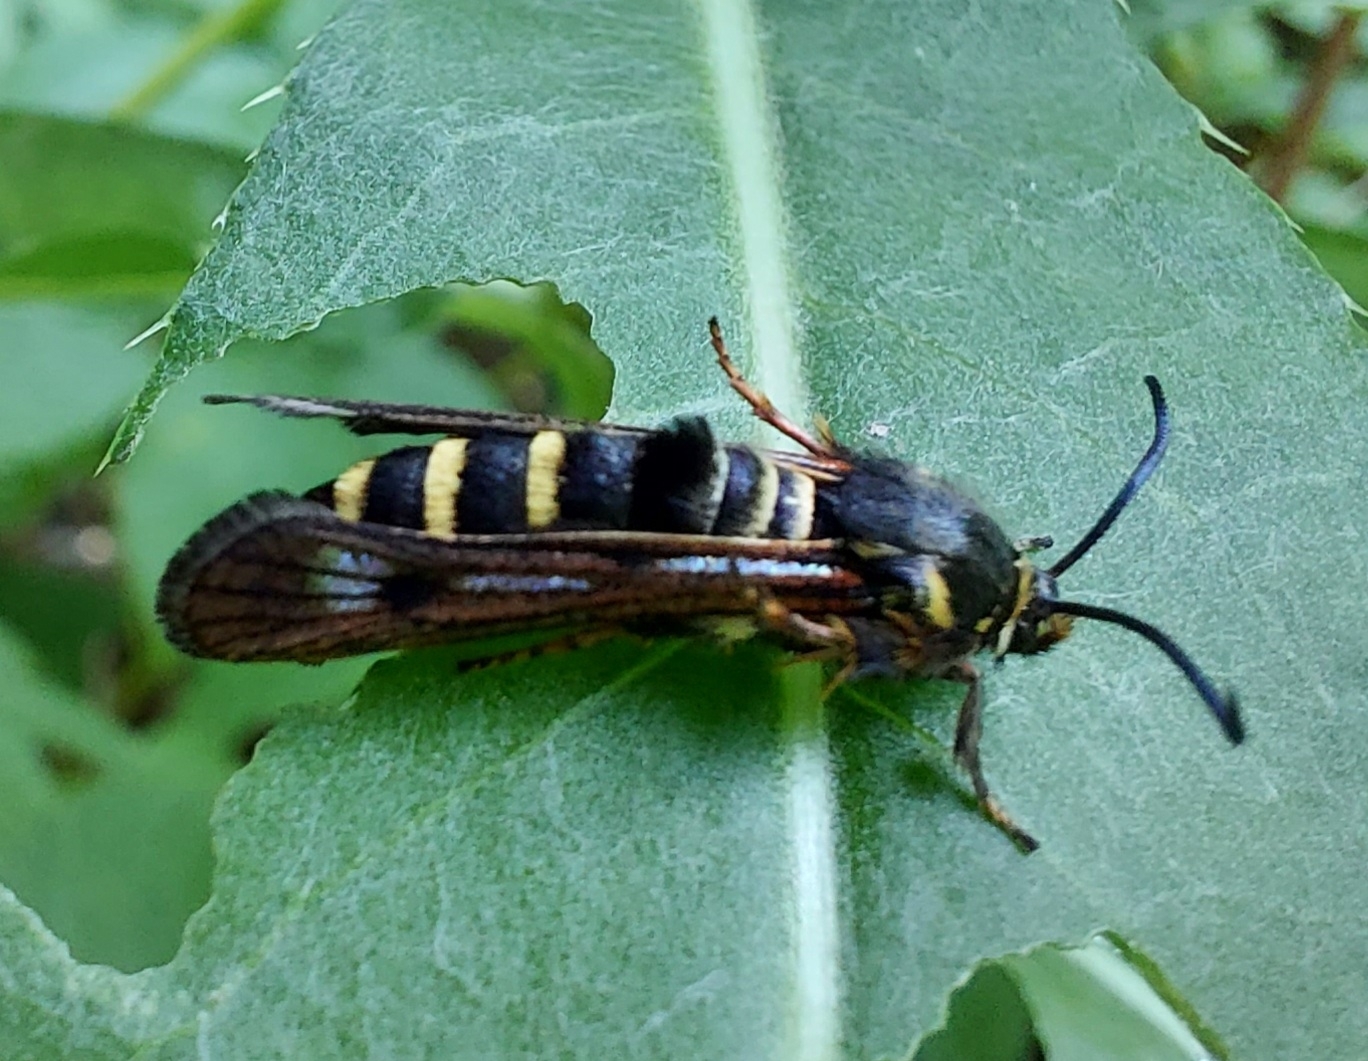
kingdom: Animalia
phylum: Arthropoda
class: Insecta
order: Lepidoptera
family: Sesiidae
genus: Pennisetia
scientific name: Pennisetia hylaeiformis
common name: Raspberry clearwing
